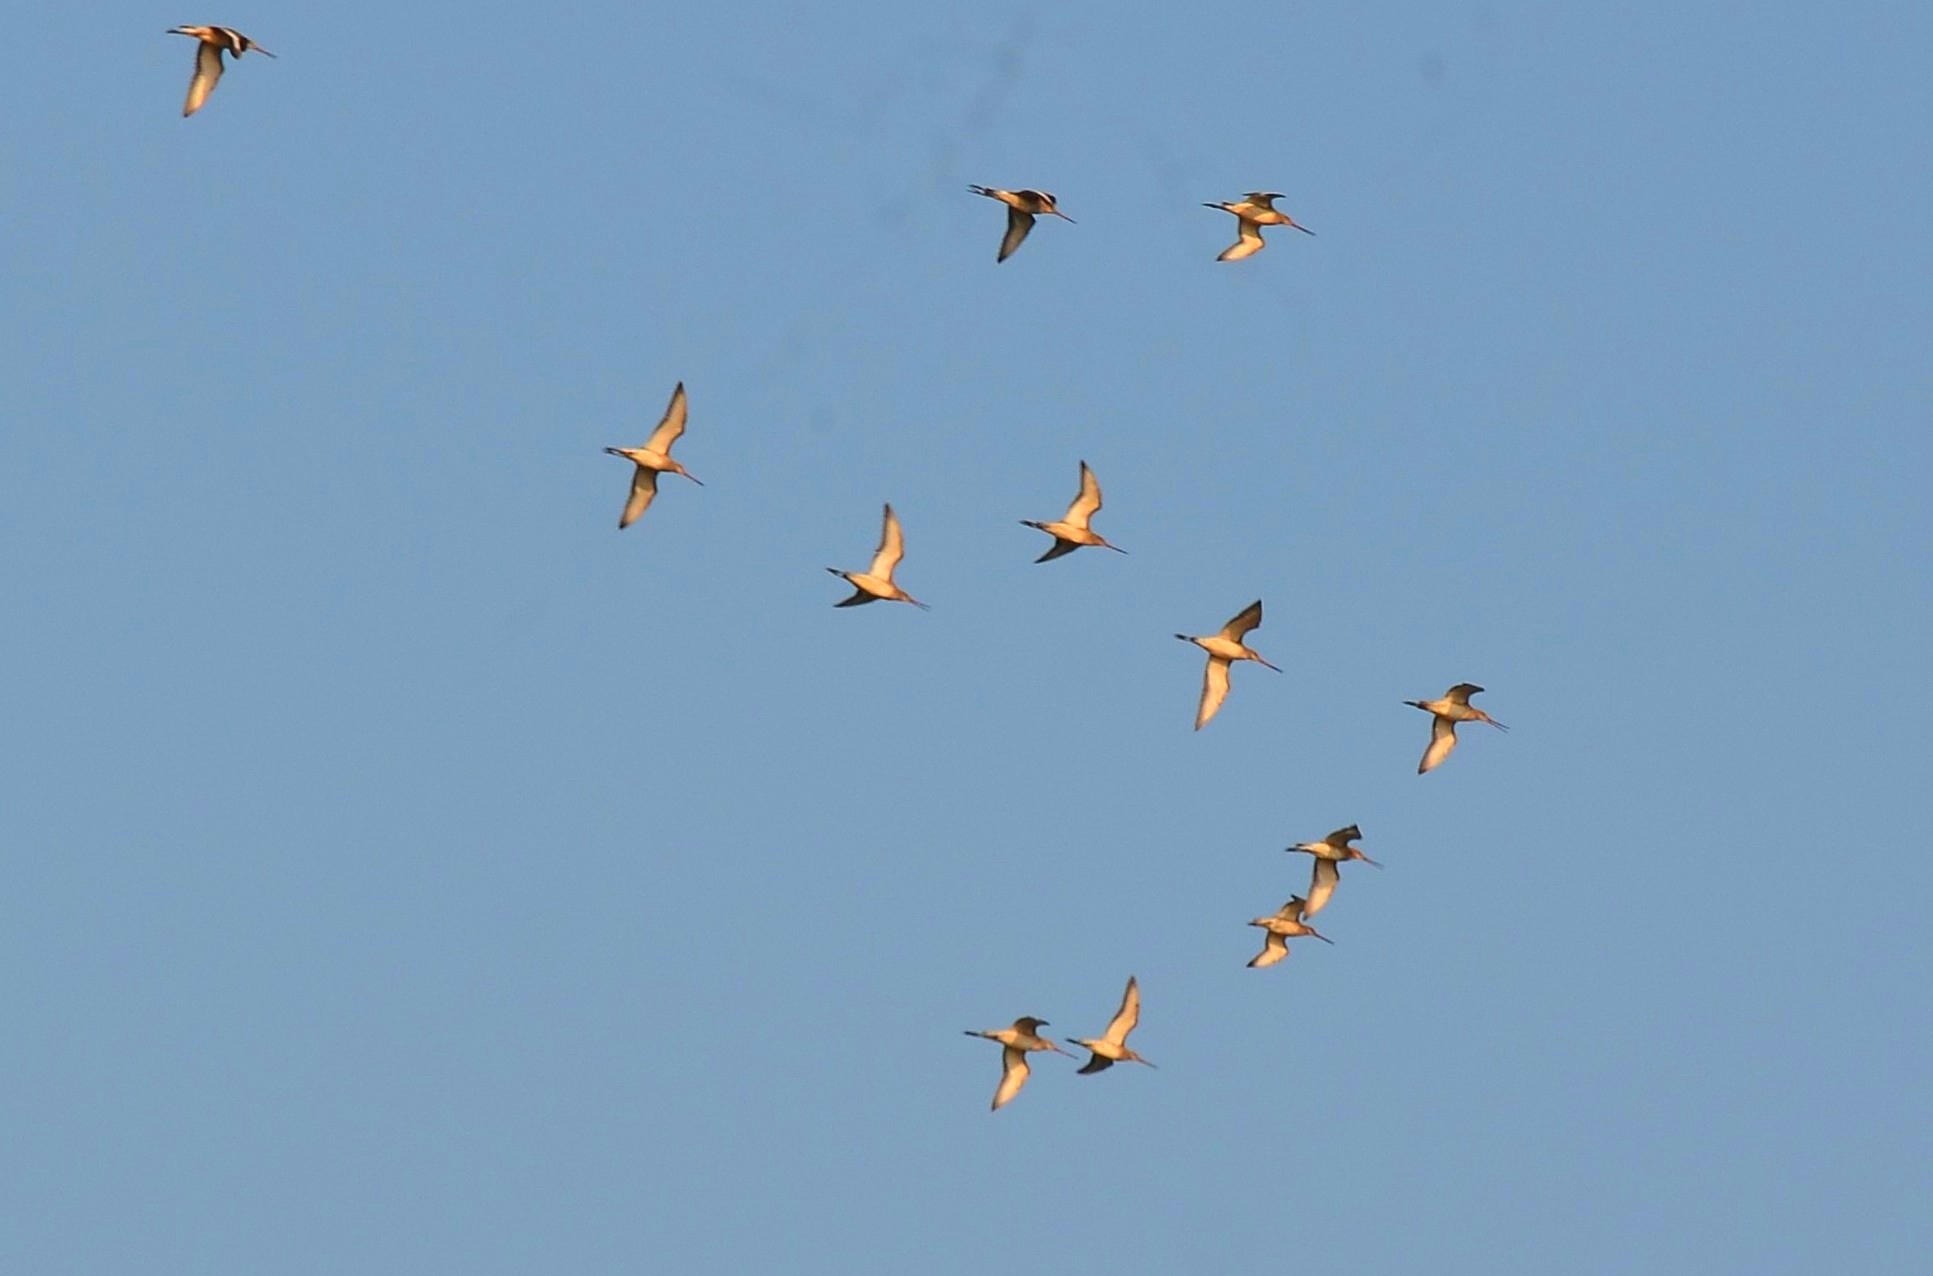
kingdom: Animalia
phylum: Chordata
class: Aves
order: Charadriiformes
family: Scolopacidae
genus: Limosa
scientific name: Limosa limosa
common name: Black-tailed godwit
